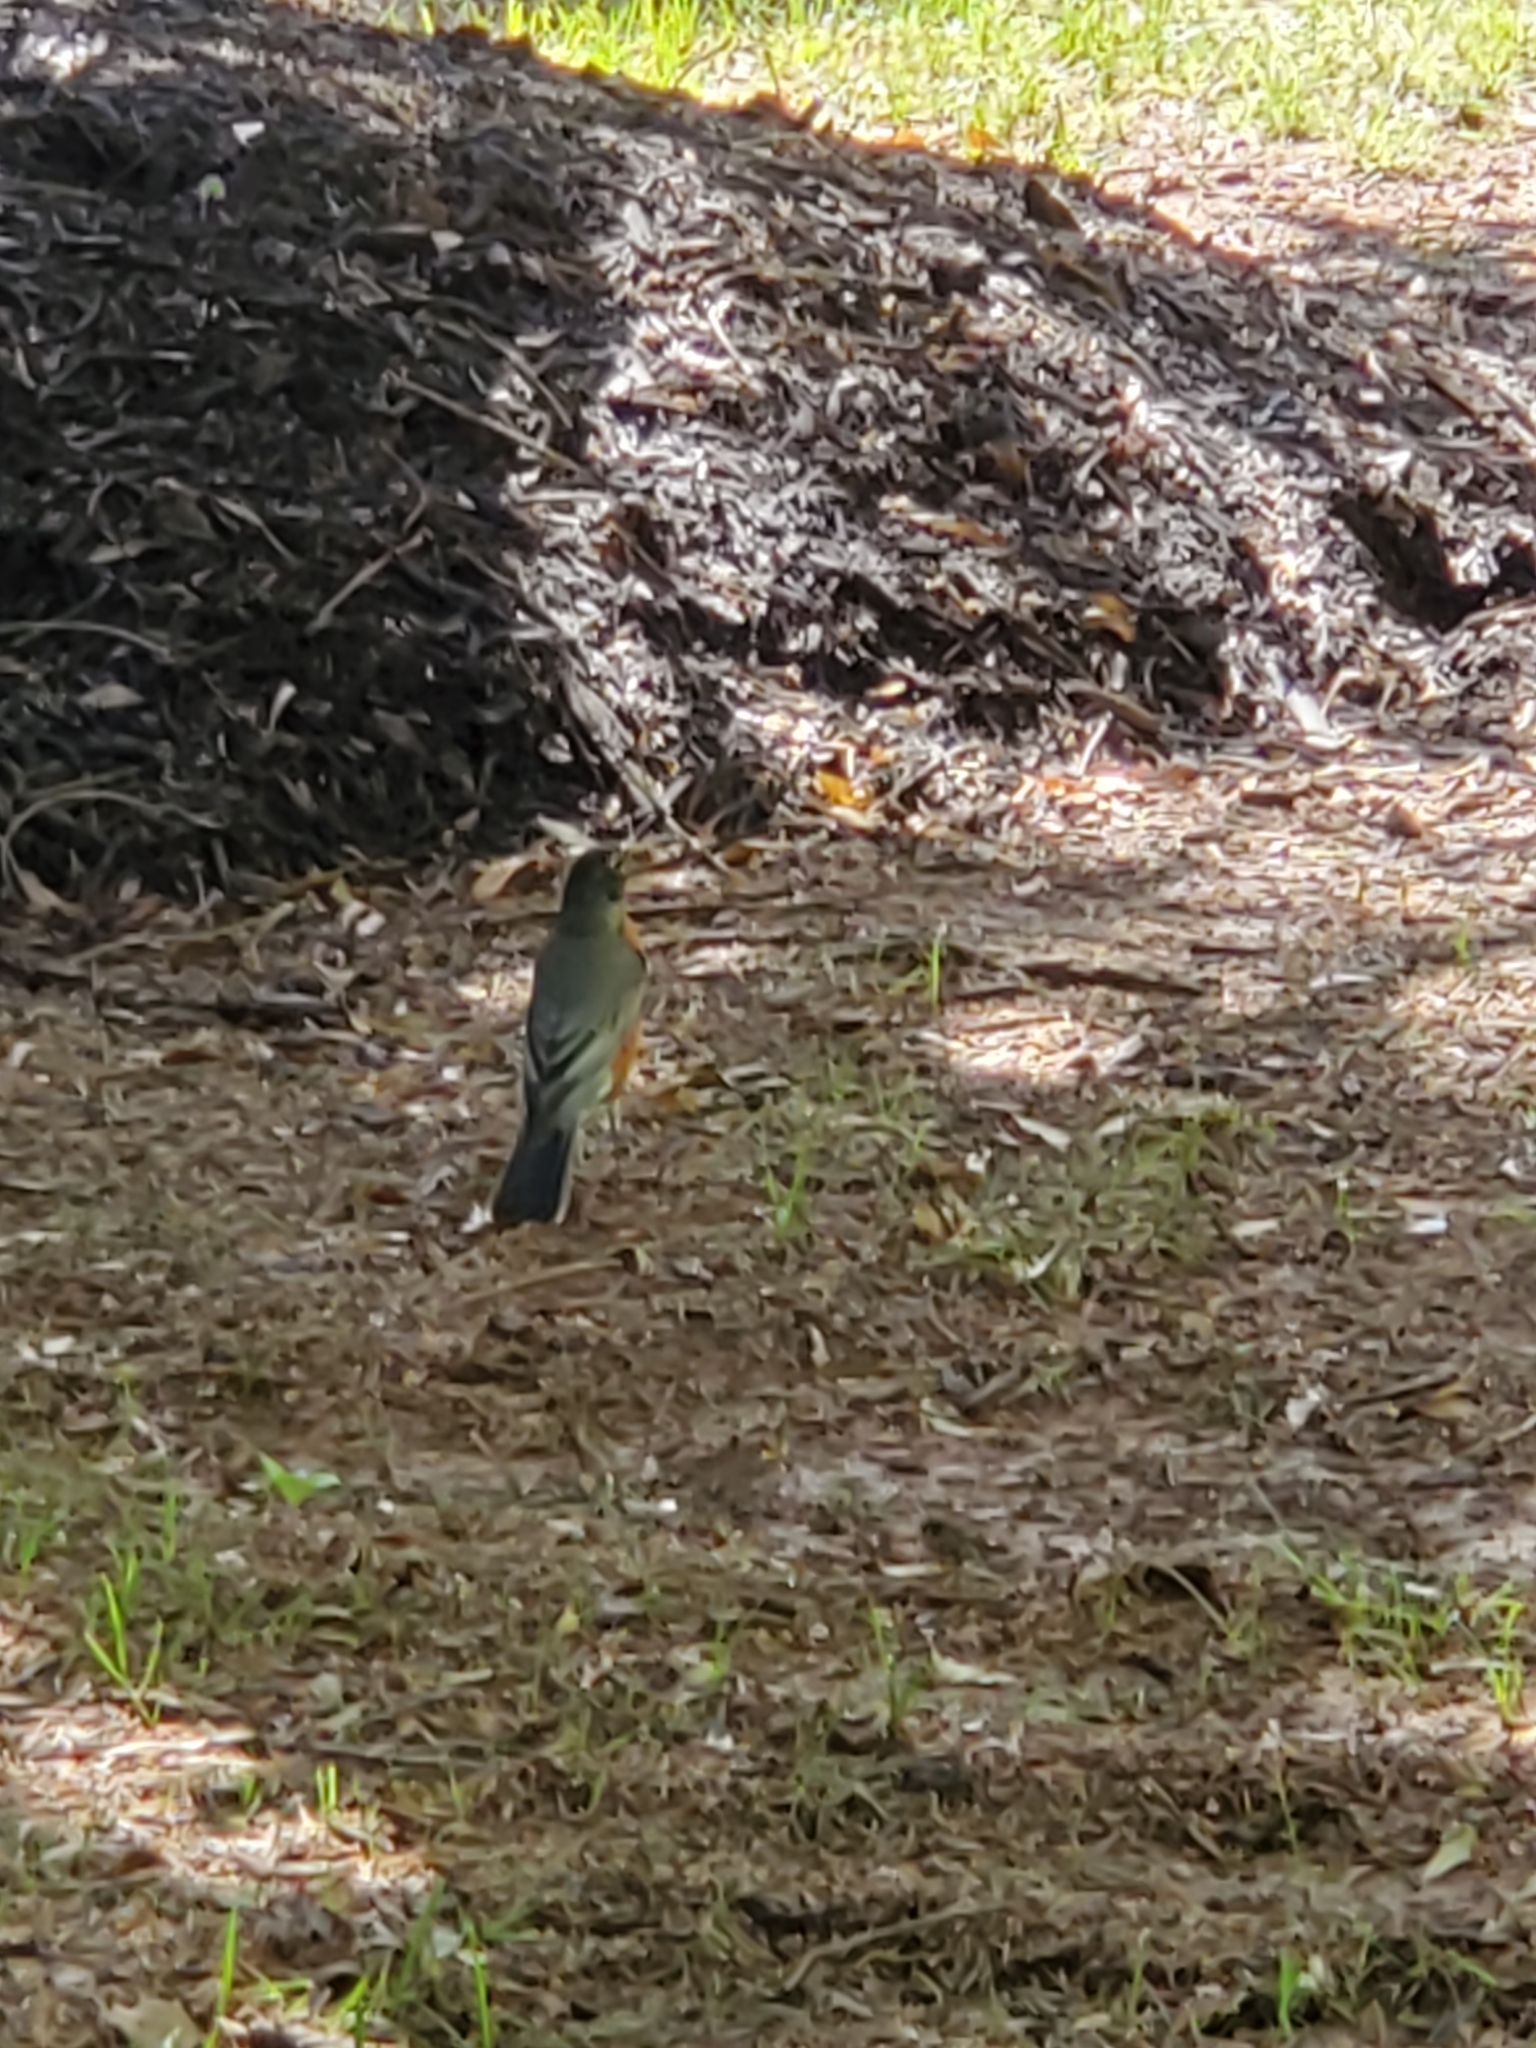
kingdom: Animalia
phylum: Chordata
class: Aves
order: Passeriformes
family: Turdidae
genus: Turdus
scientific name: Turdus migratorius
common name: American robin
